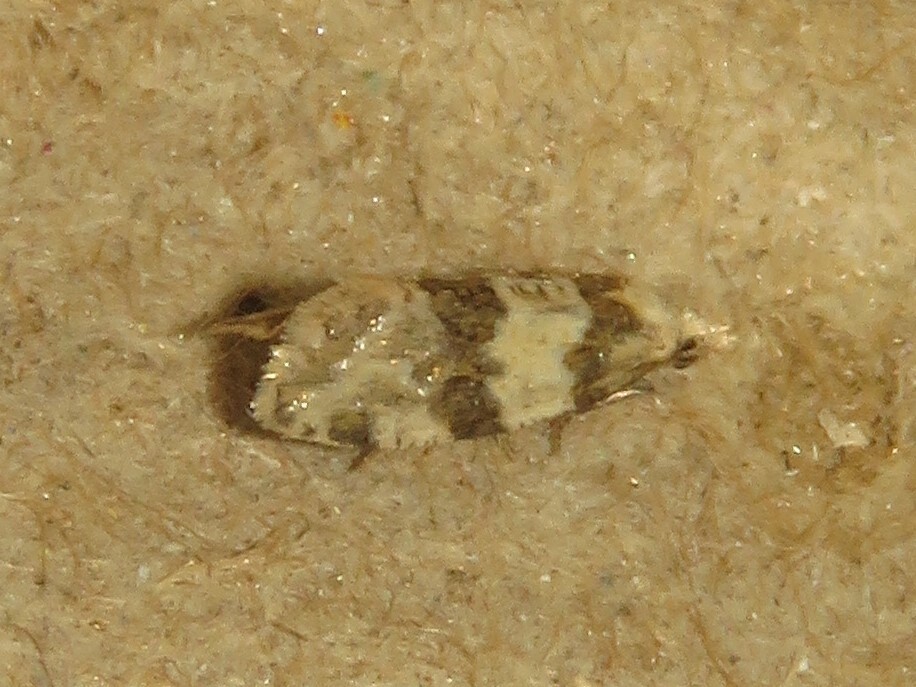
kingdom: Animalia
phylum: Arthropoda
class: Insecta
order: Lepidoptera
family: Tortricidae
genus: Aethes
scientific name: Aethes argentilimitana
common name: Silver-bordered aethes
